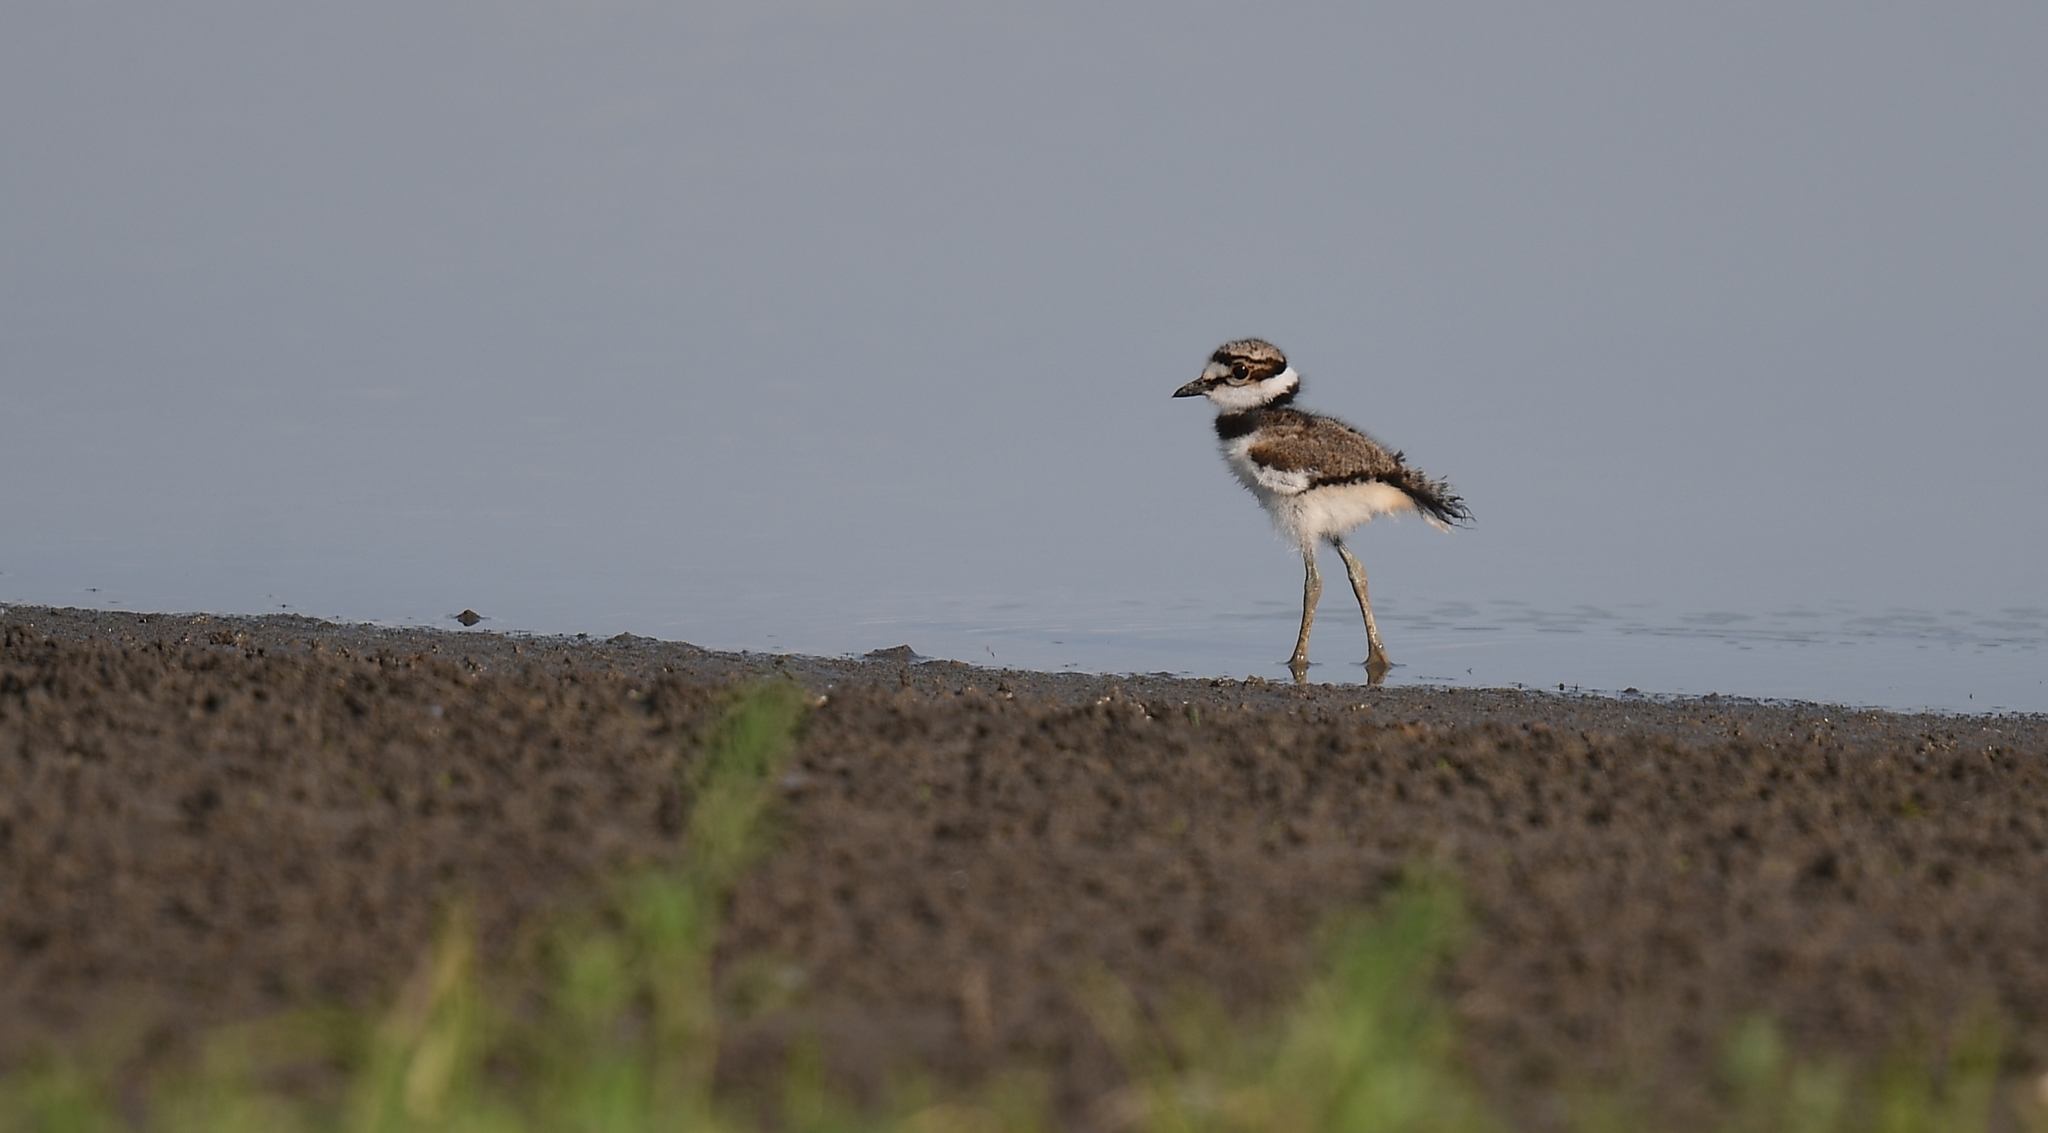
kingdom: Animalia
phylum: Chordata
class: Aves
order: Charadriiformes
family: Charadriidae
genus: Charadrius
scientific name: Charadrius vociferus
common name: Killdeer
